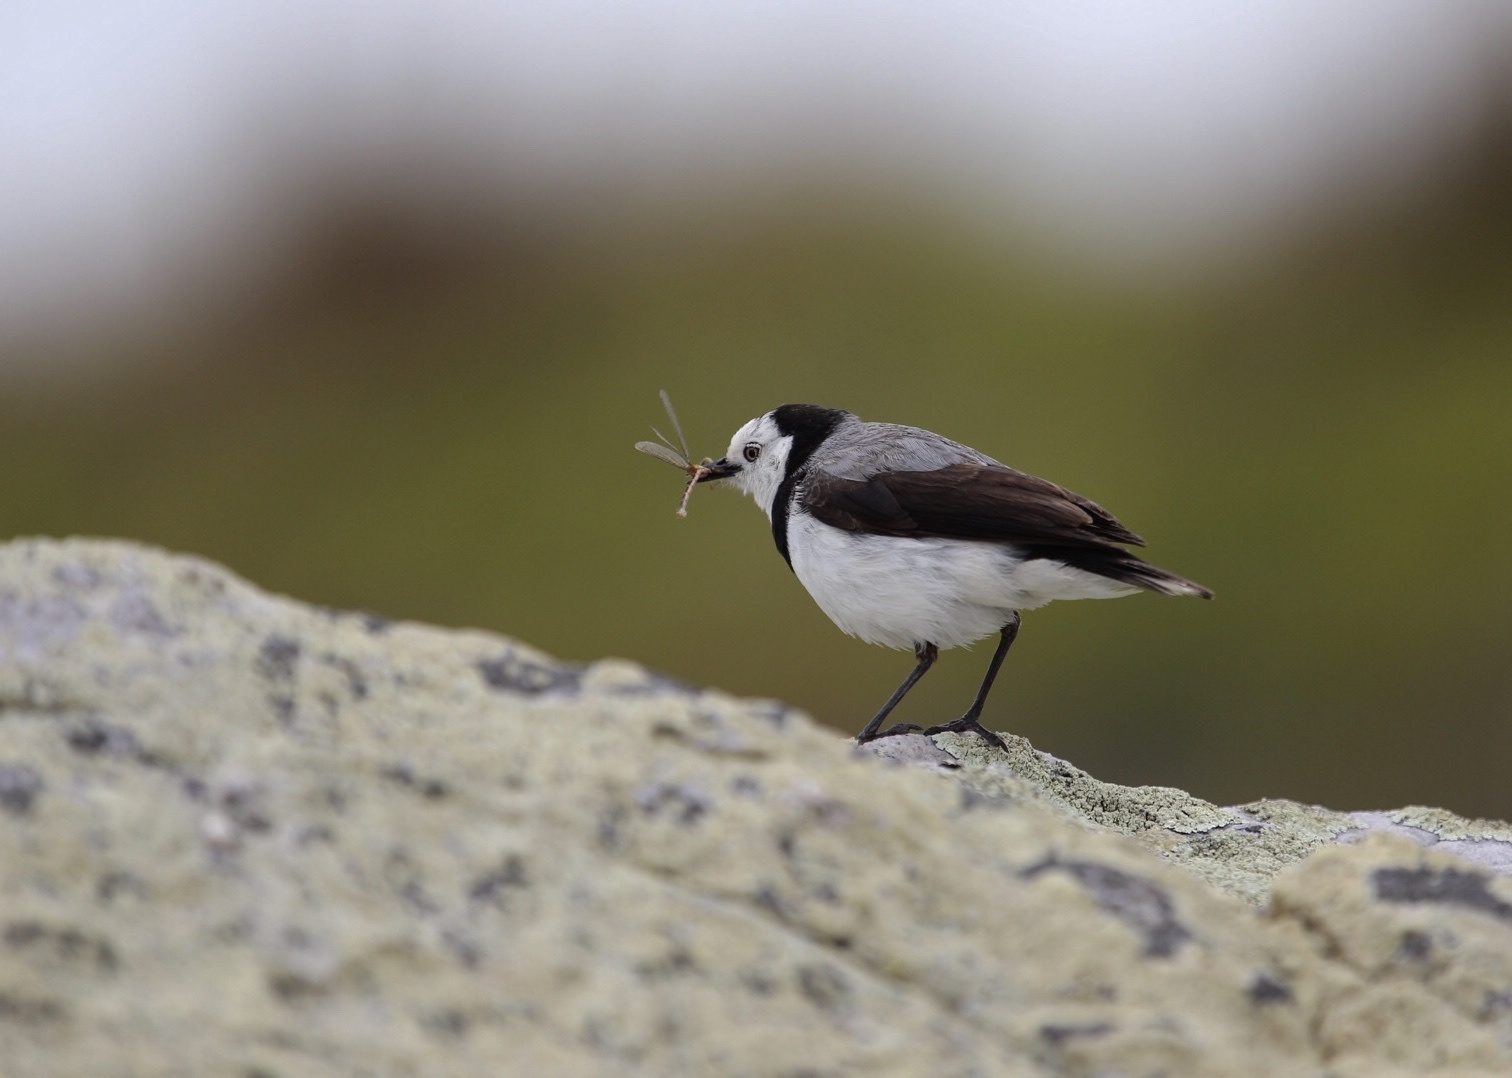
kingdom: Animalia
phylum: Chordata
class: Aves
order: Passeriformes
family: Meliphagidae
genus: Epthianura
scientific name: Epthianura albifrons
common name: White-fronted chat
